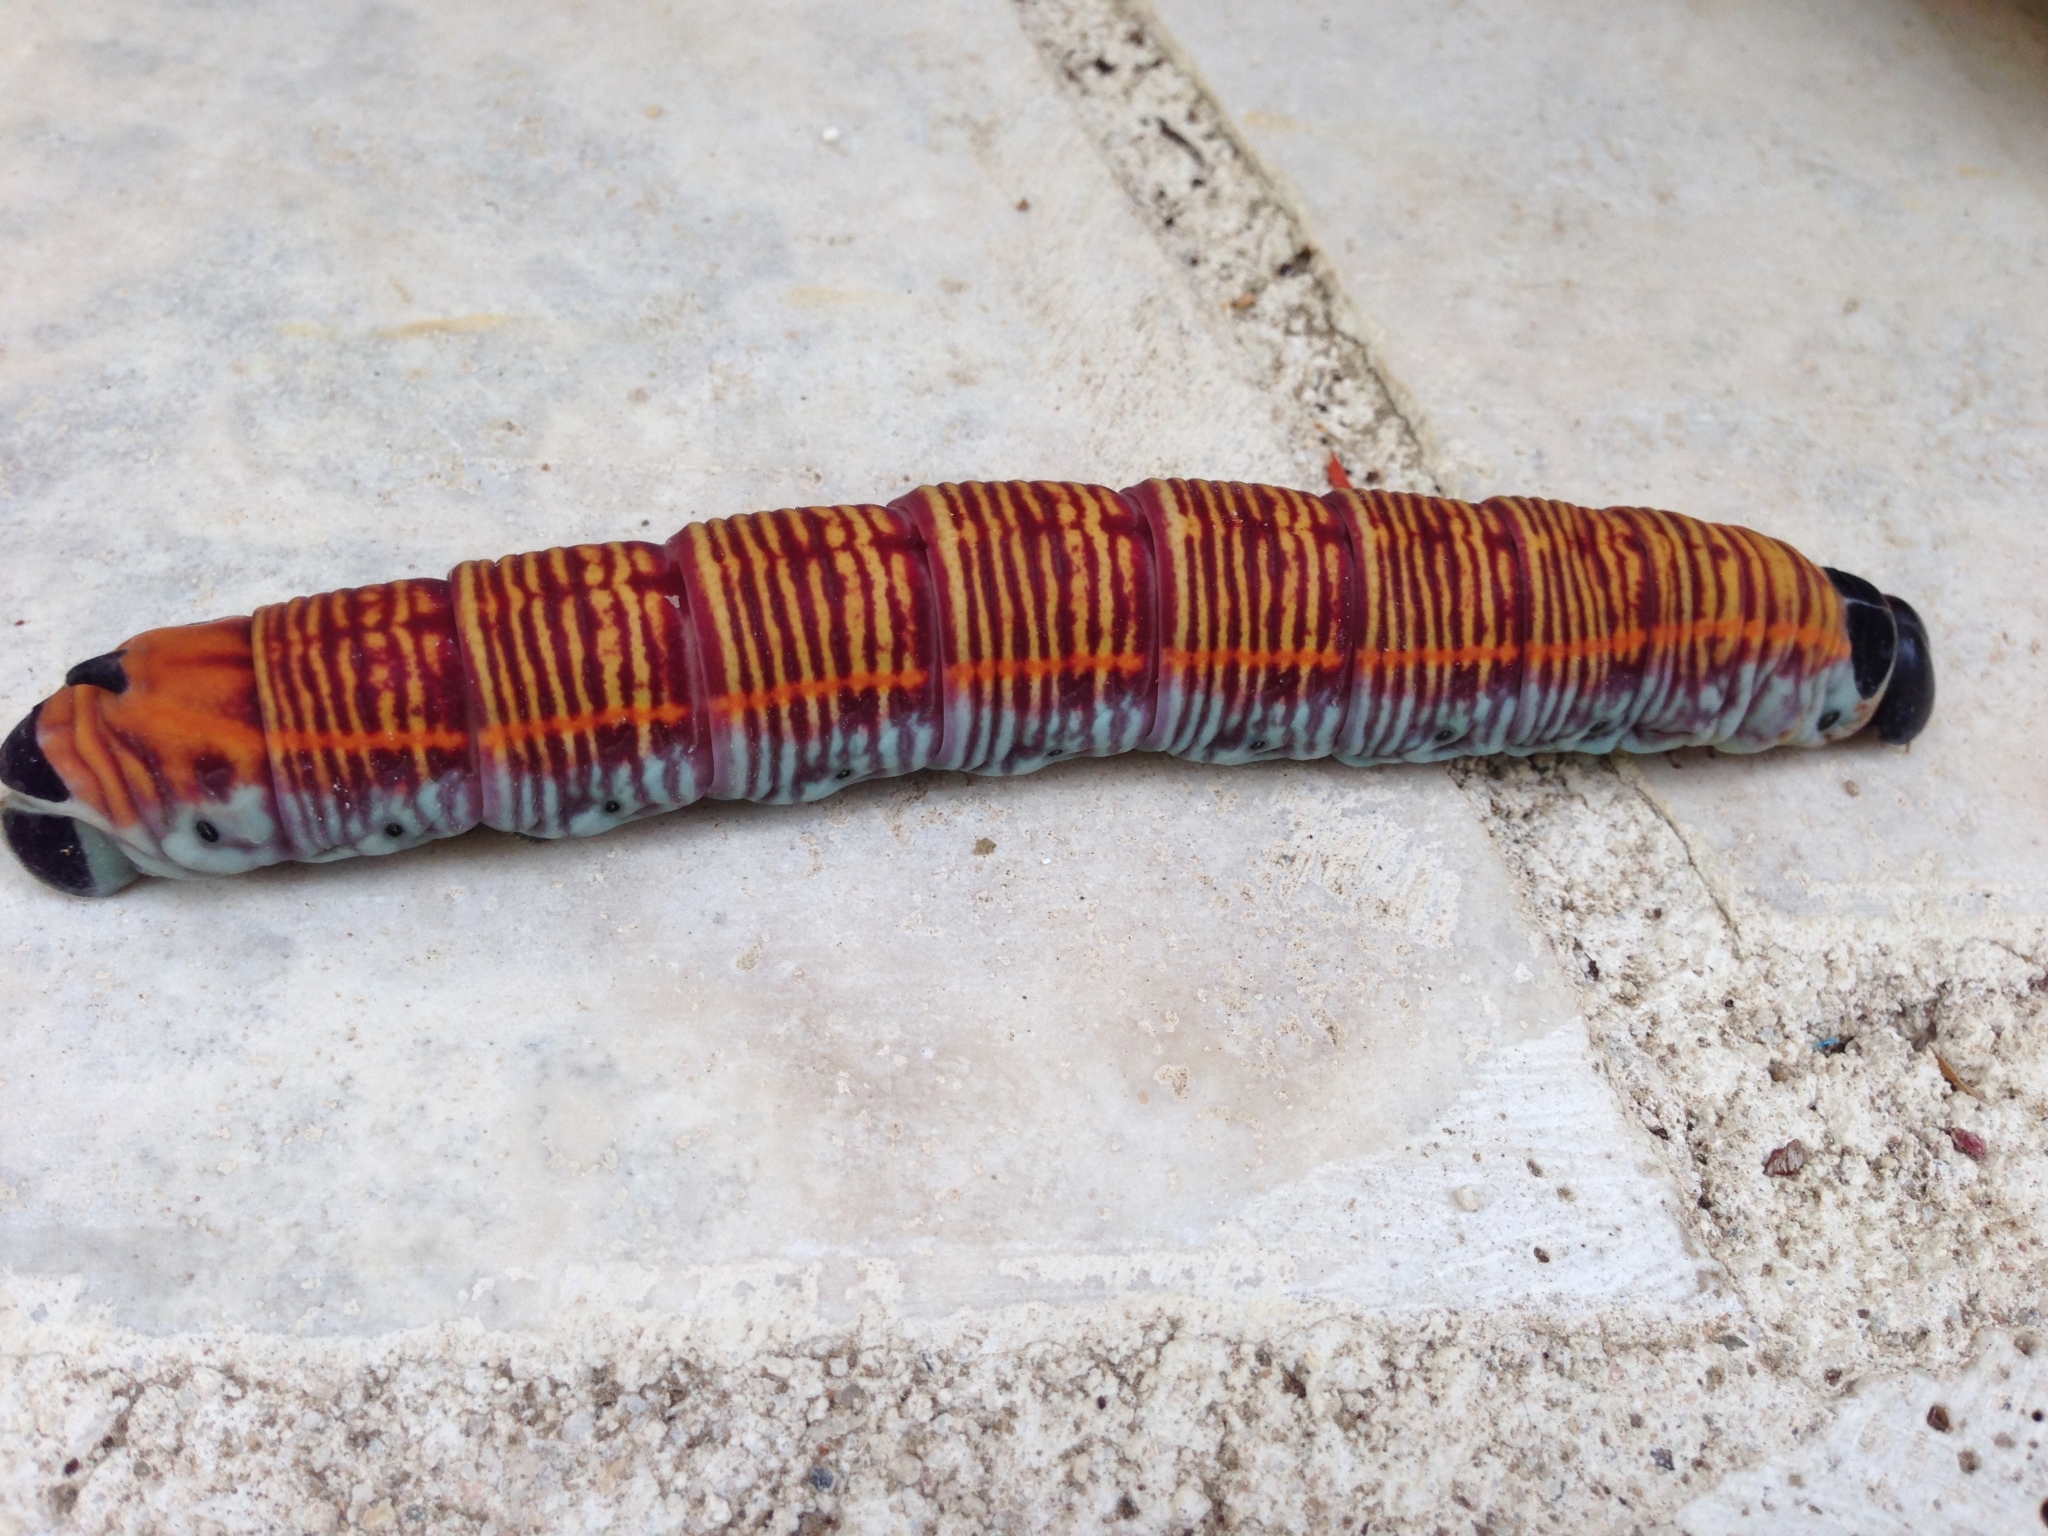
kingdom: Animalia
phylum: Arthropoda
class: Insecta
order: Lepidoptera
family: Sphingidae
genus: Pachylia
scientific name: Pachylia ficus
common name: Fig sphinx
